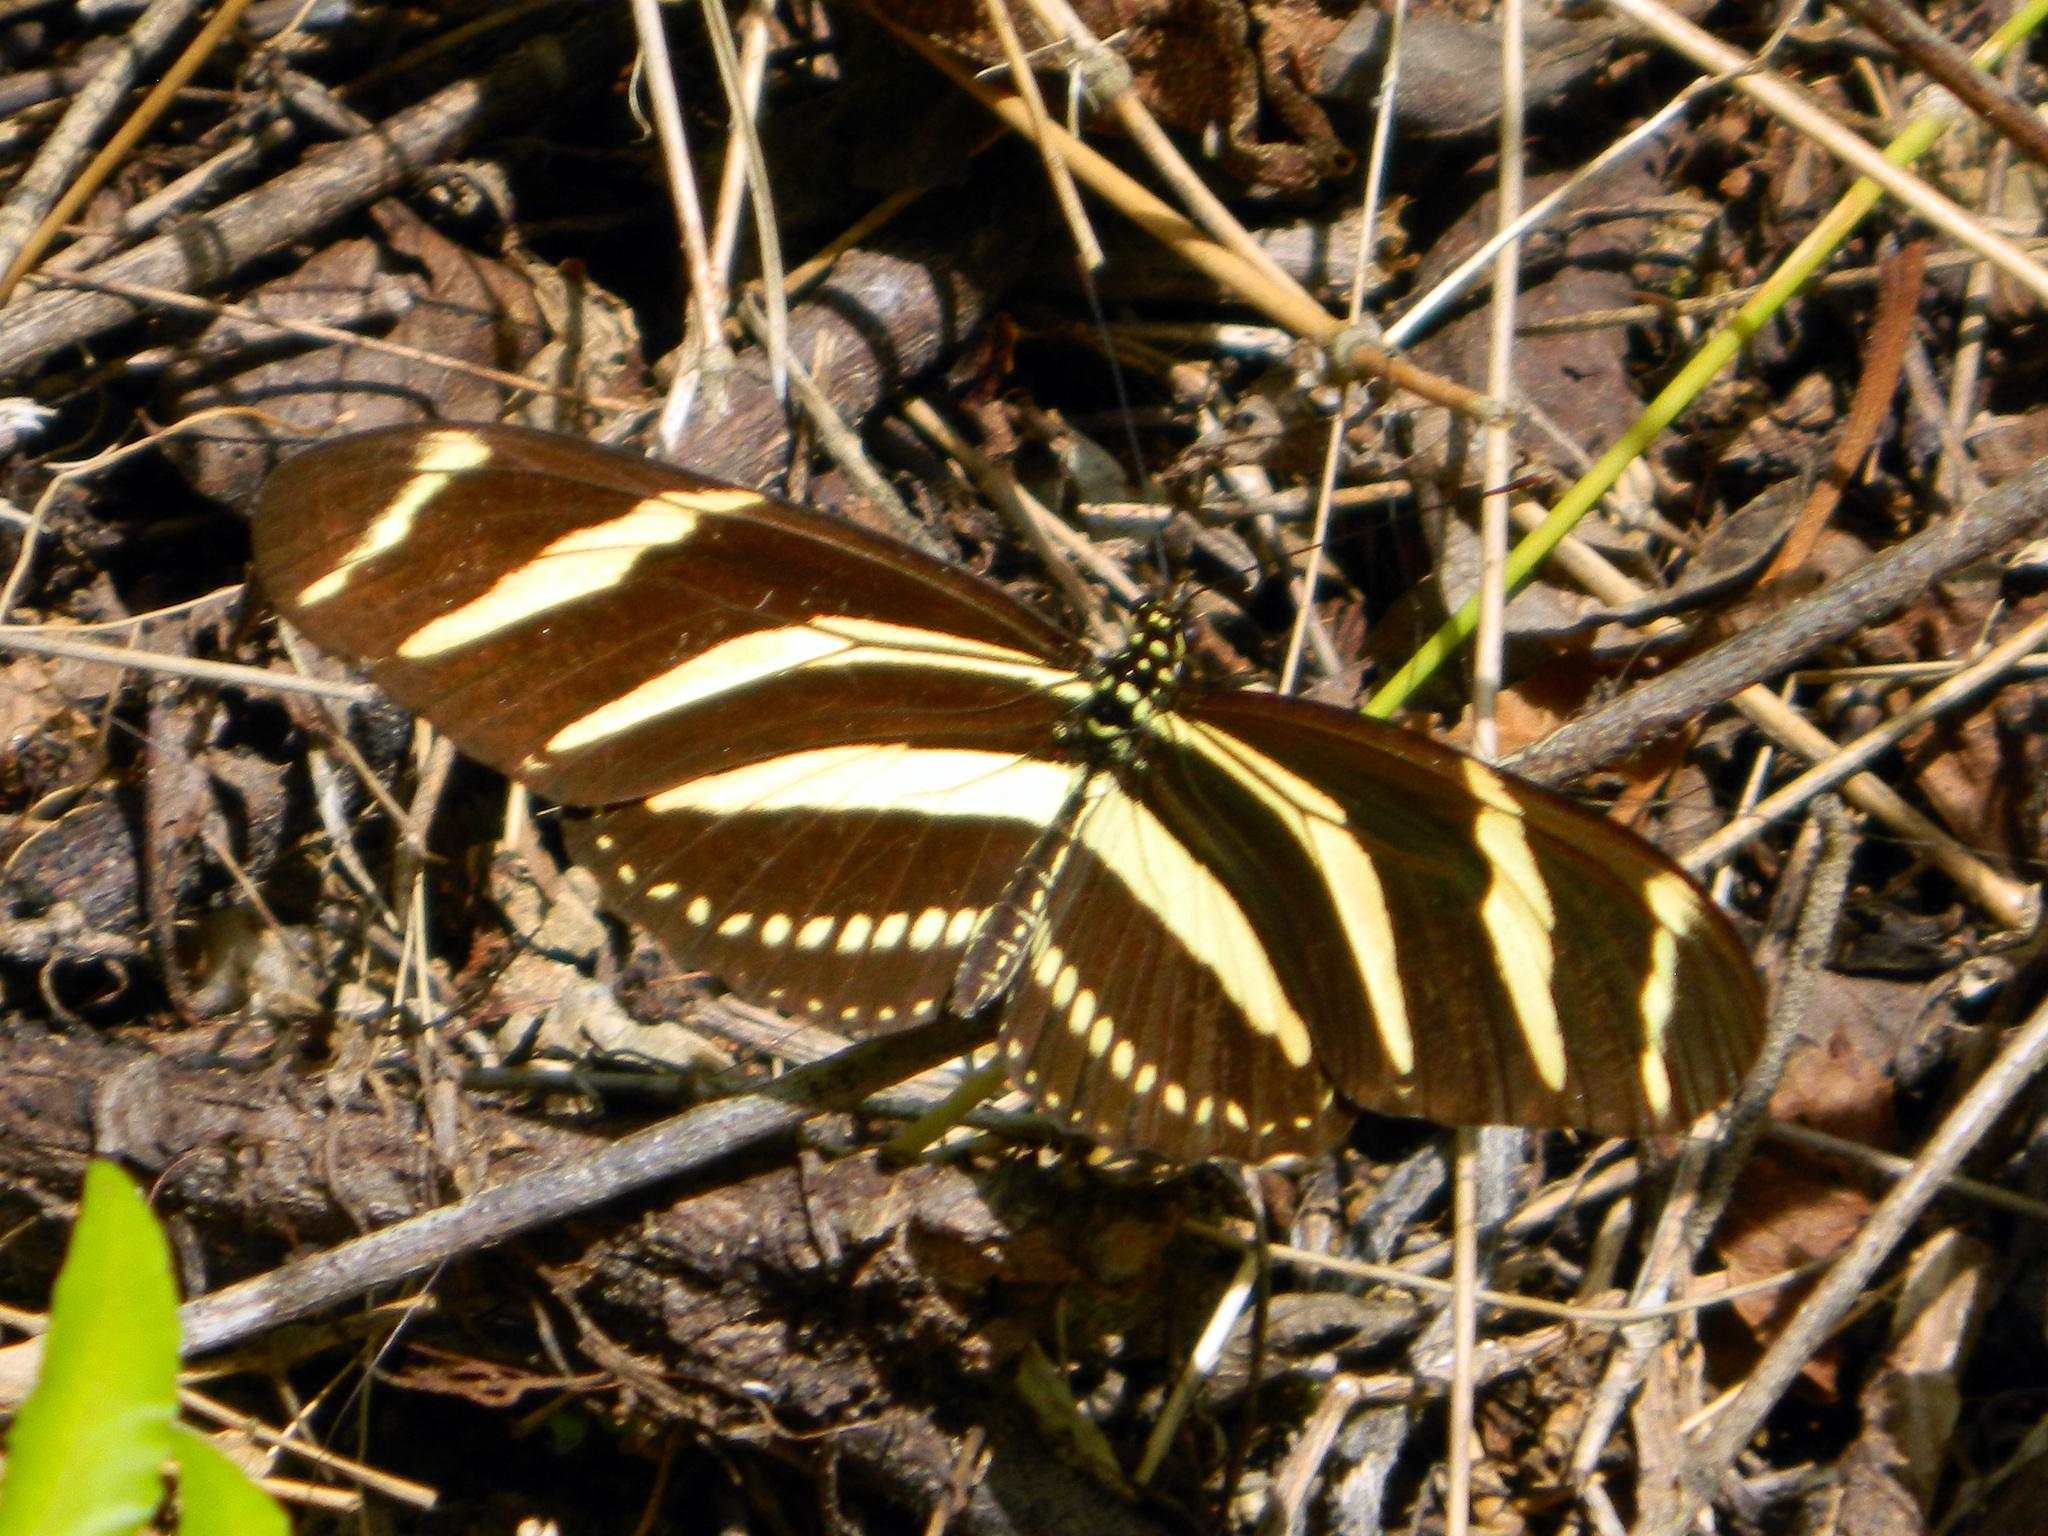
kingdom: Animalia
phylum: Arthropoda
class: Insecta
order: Lepidoptera
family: Nymphalidae
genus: Heliconius
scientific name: Heliconius charithonia
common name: Zebra long wing
